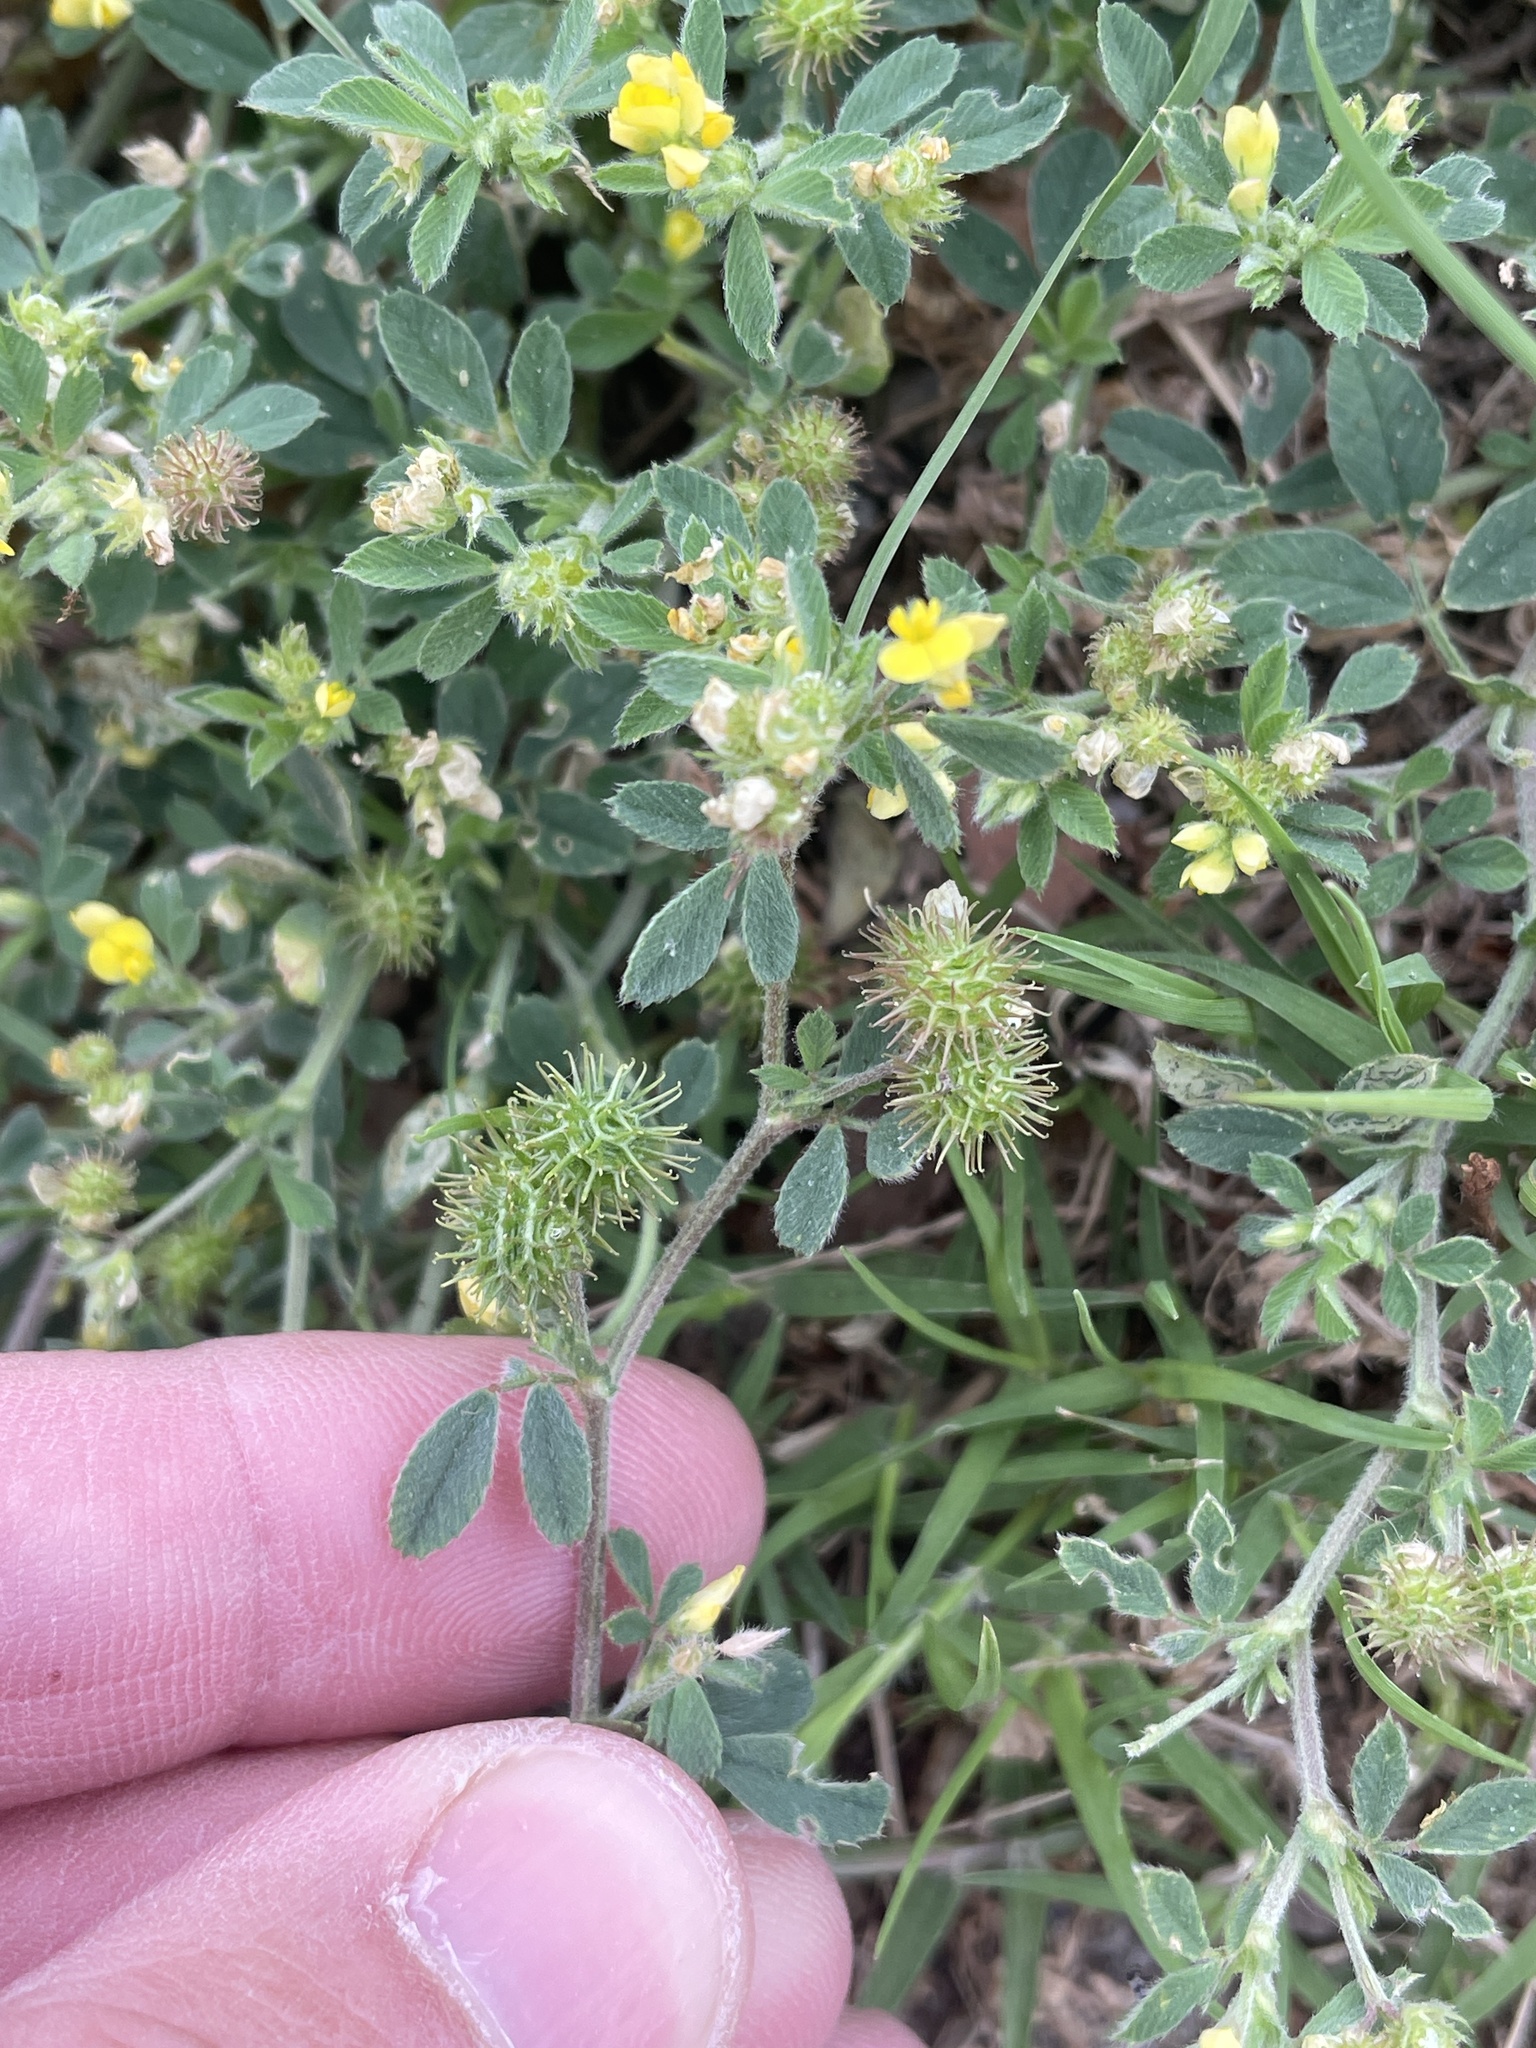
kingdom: Plantae
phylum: Tracheophyta
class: Magnoliopsida
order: Fabales
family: Fabaceae
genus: Medicago
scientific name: Medicago minima
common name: Little bur-clover
